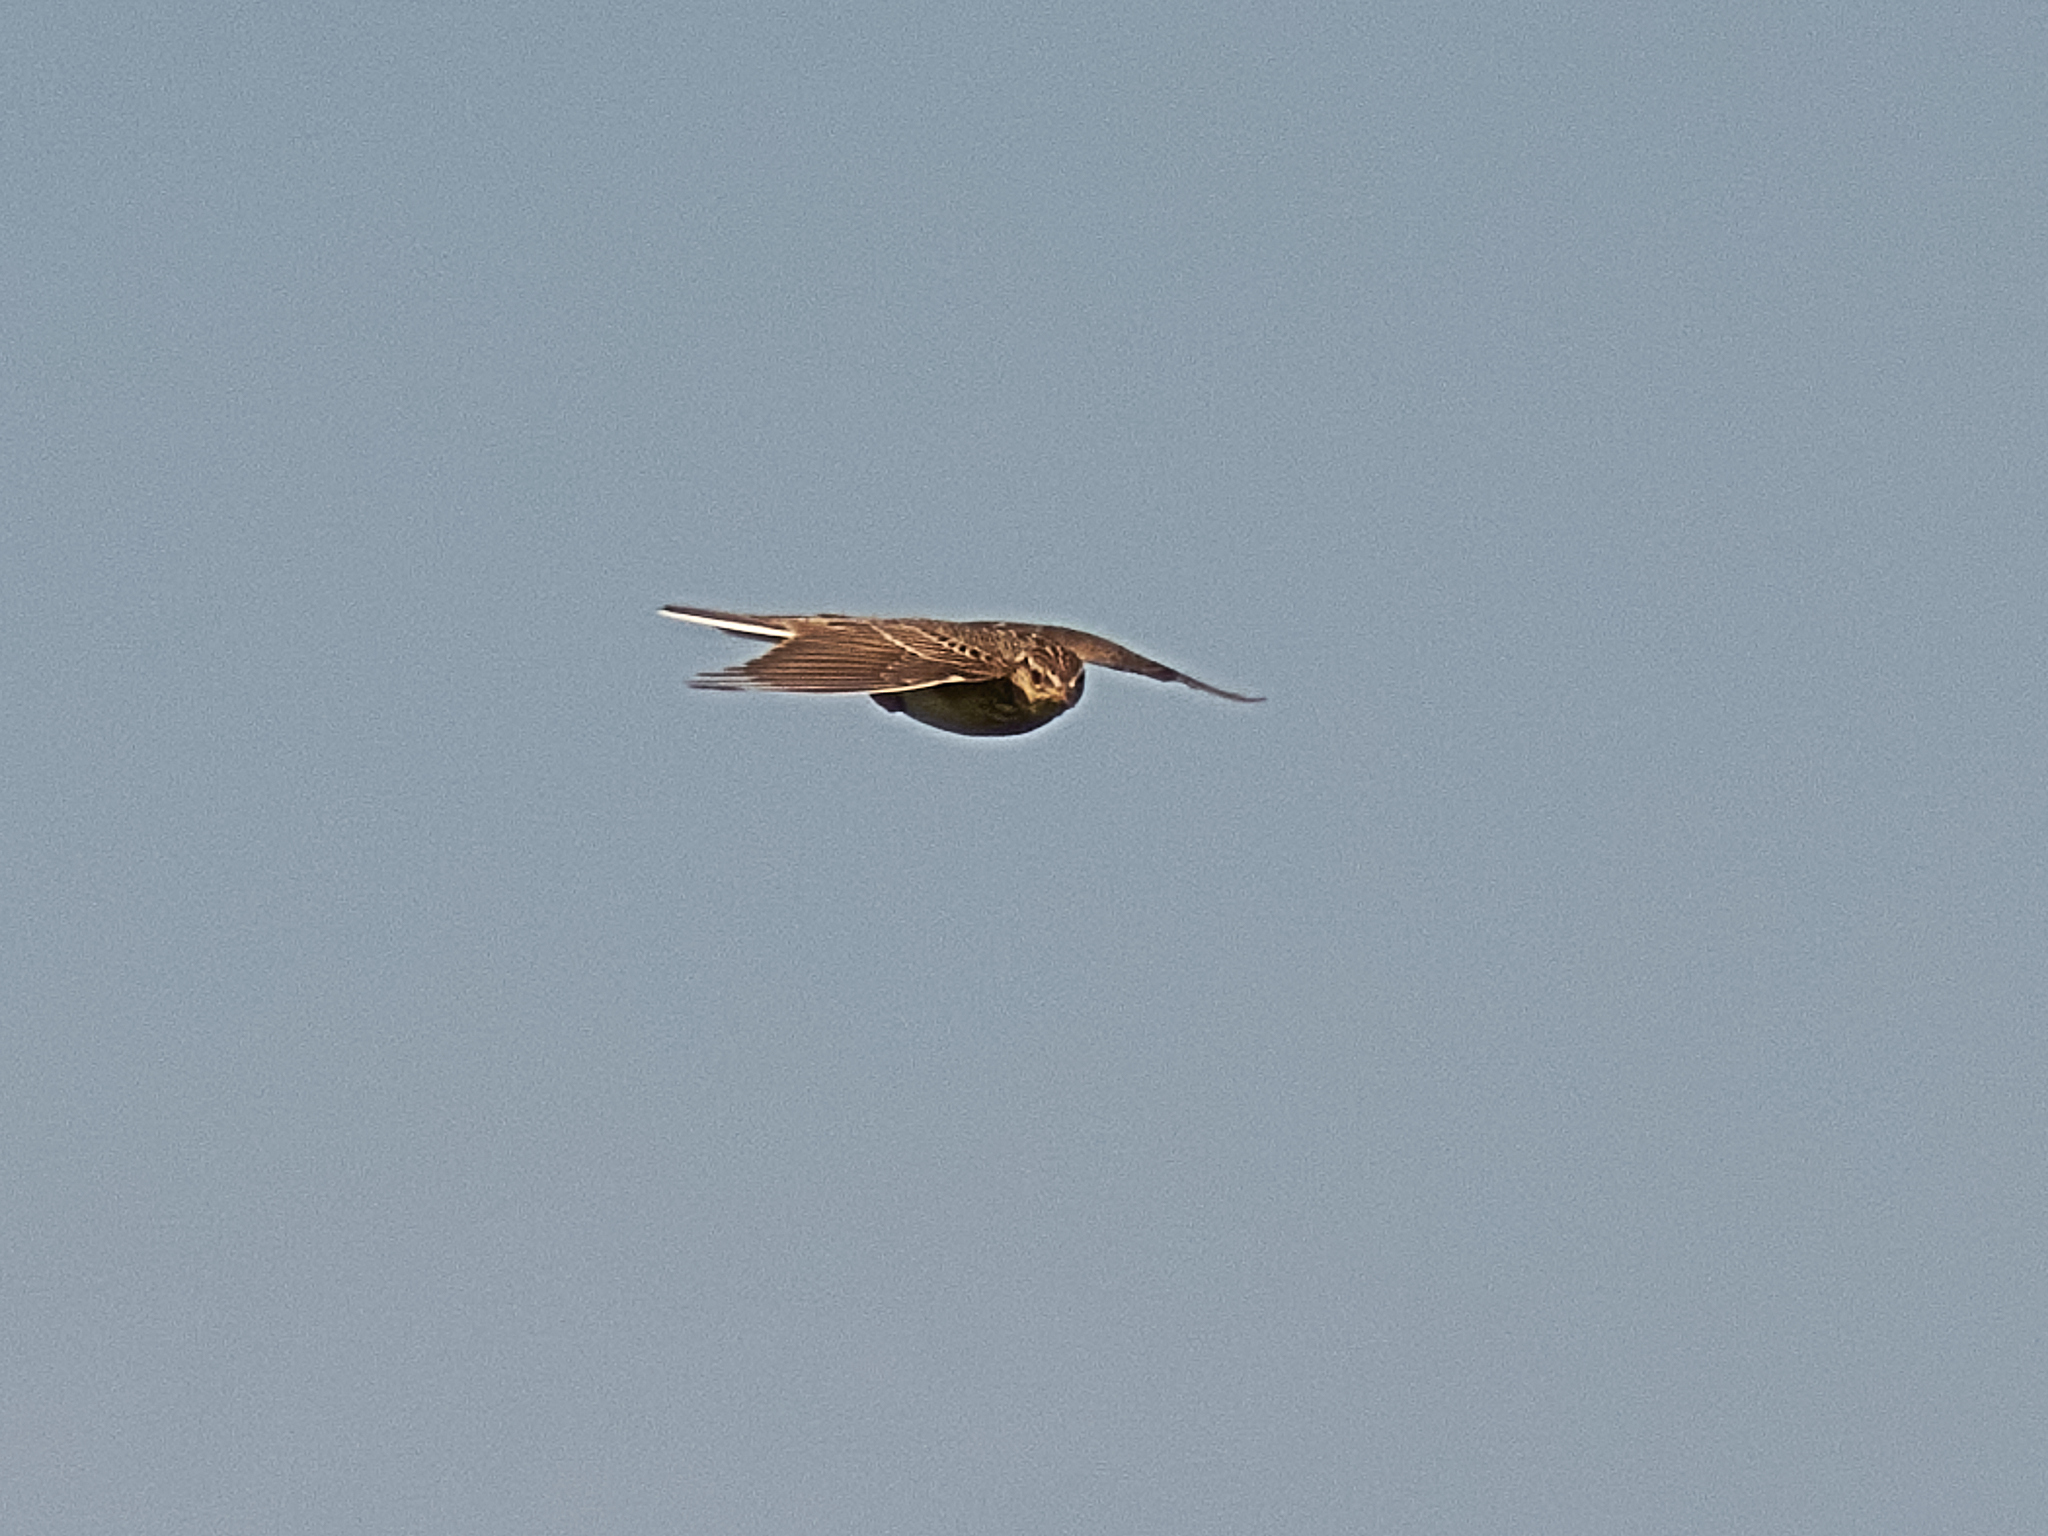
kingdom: Animalia
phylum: Chordata
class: Aves
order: Passeriformes
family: Alaudidae
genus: Alauda
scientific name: Alauda arvensis
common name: Eurasian skylark
